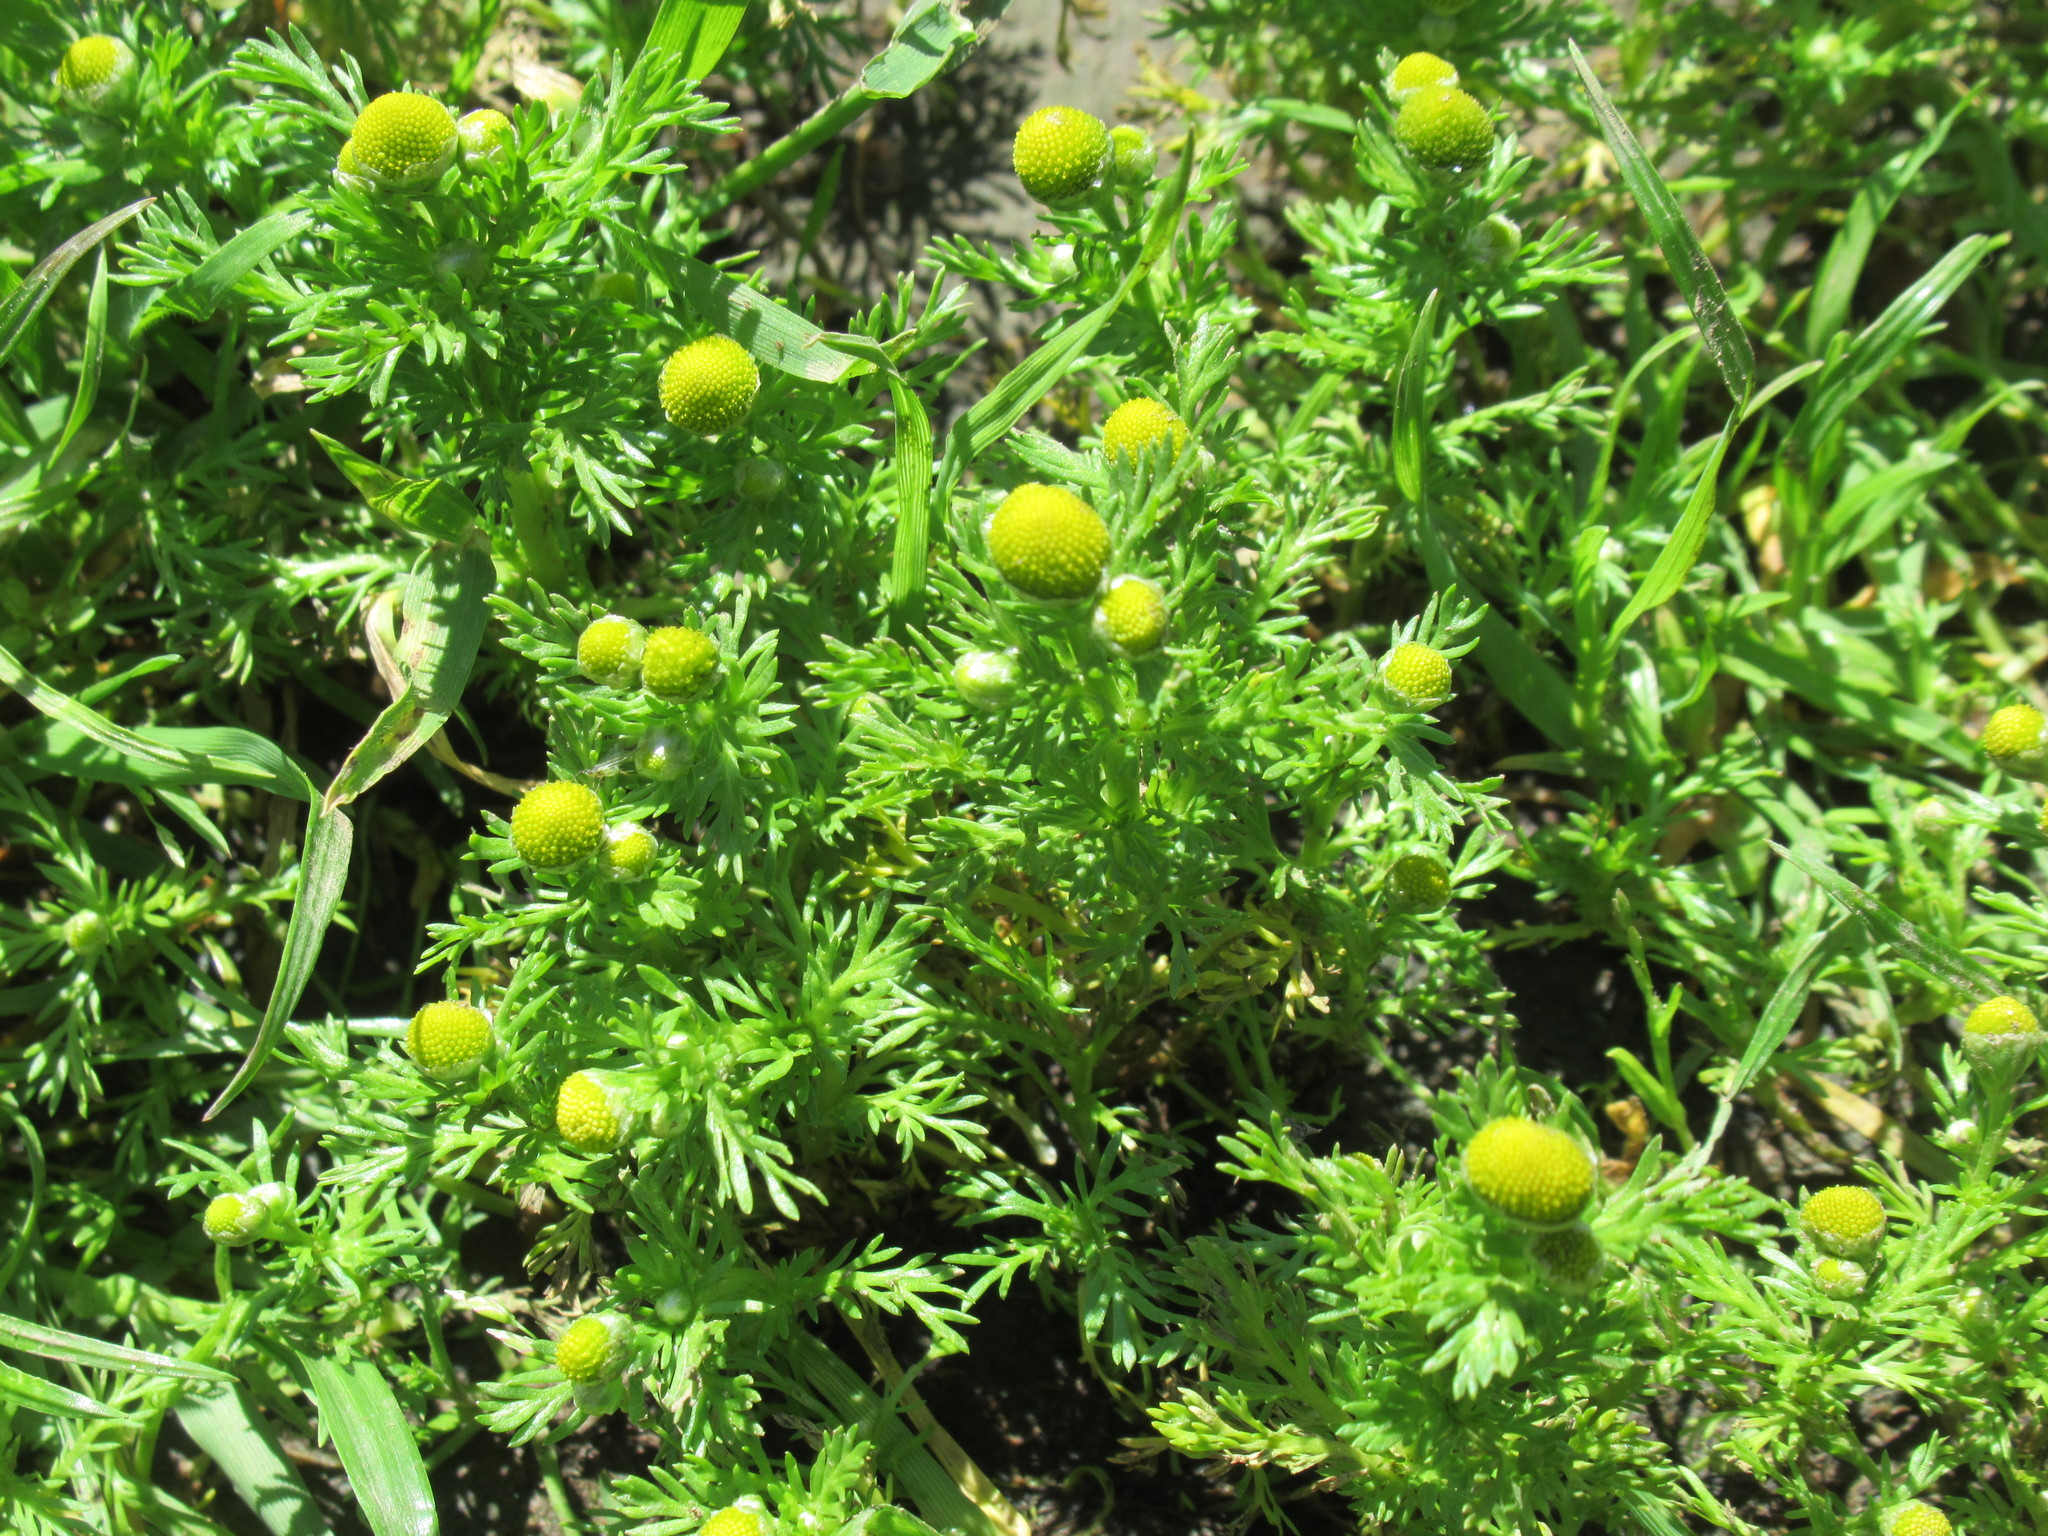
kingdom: Plantae
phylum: Tracheophyta
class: Magnoliopsida
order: Asterales
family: Asteraceae
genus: Matricaria
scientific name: Matricaria discoidea
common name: Disc mayweed
